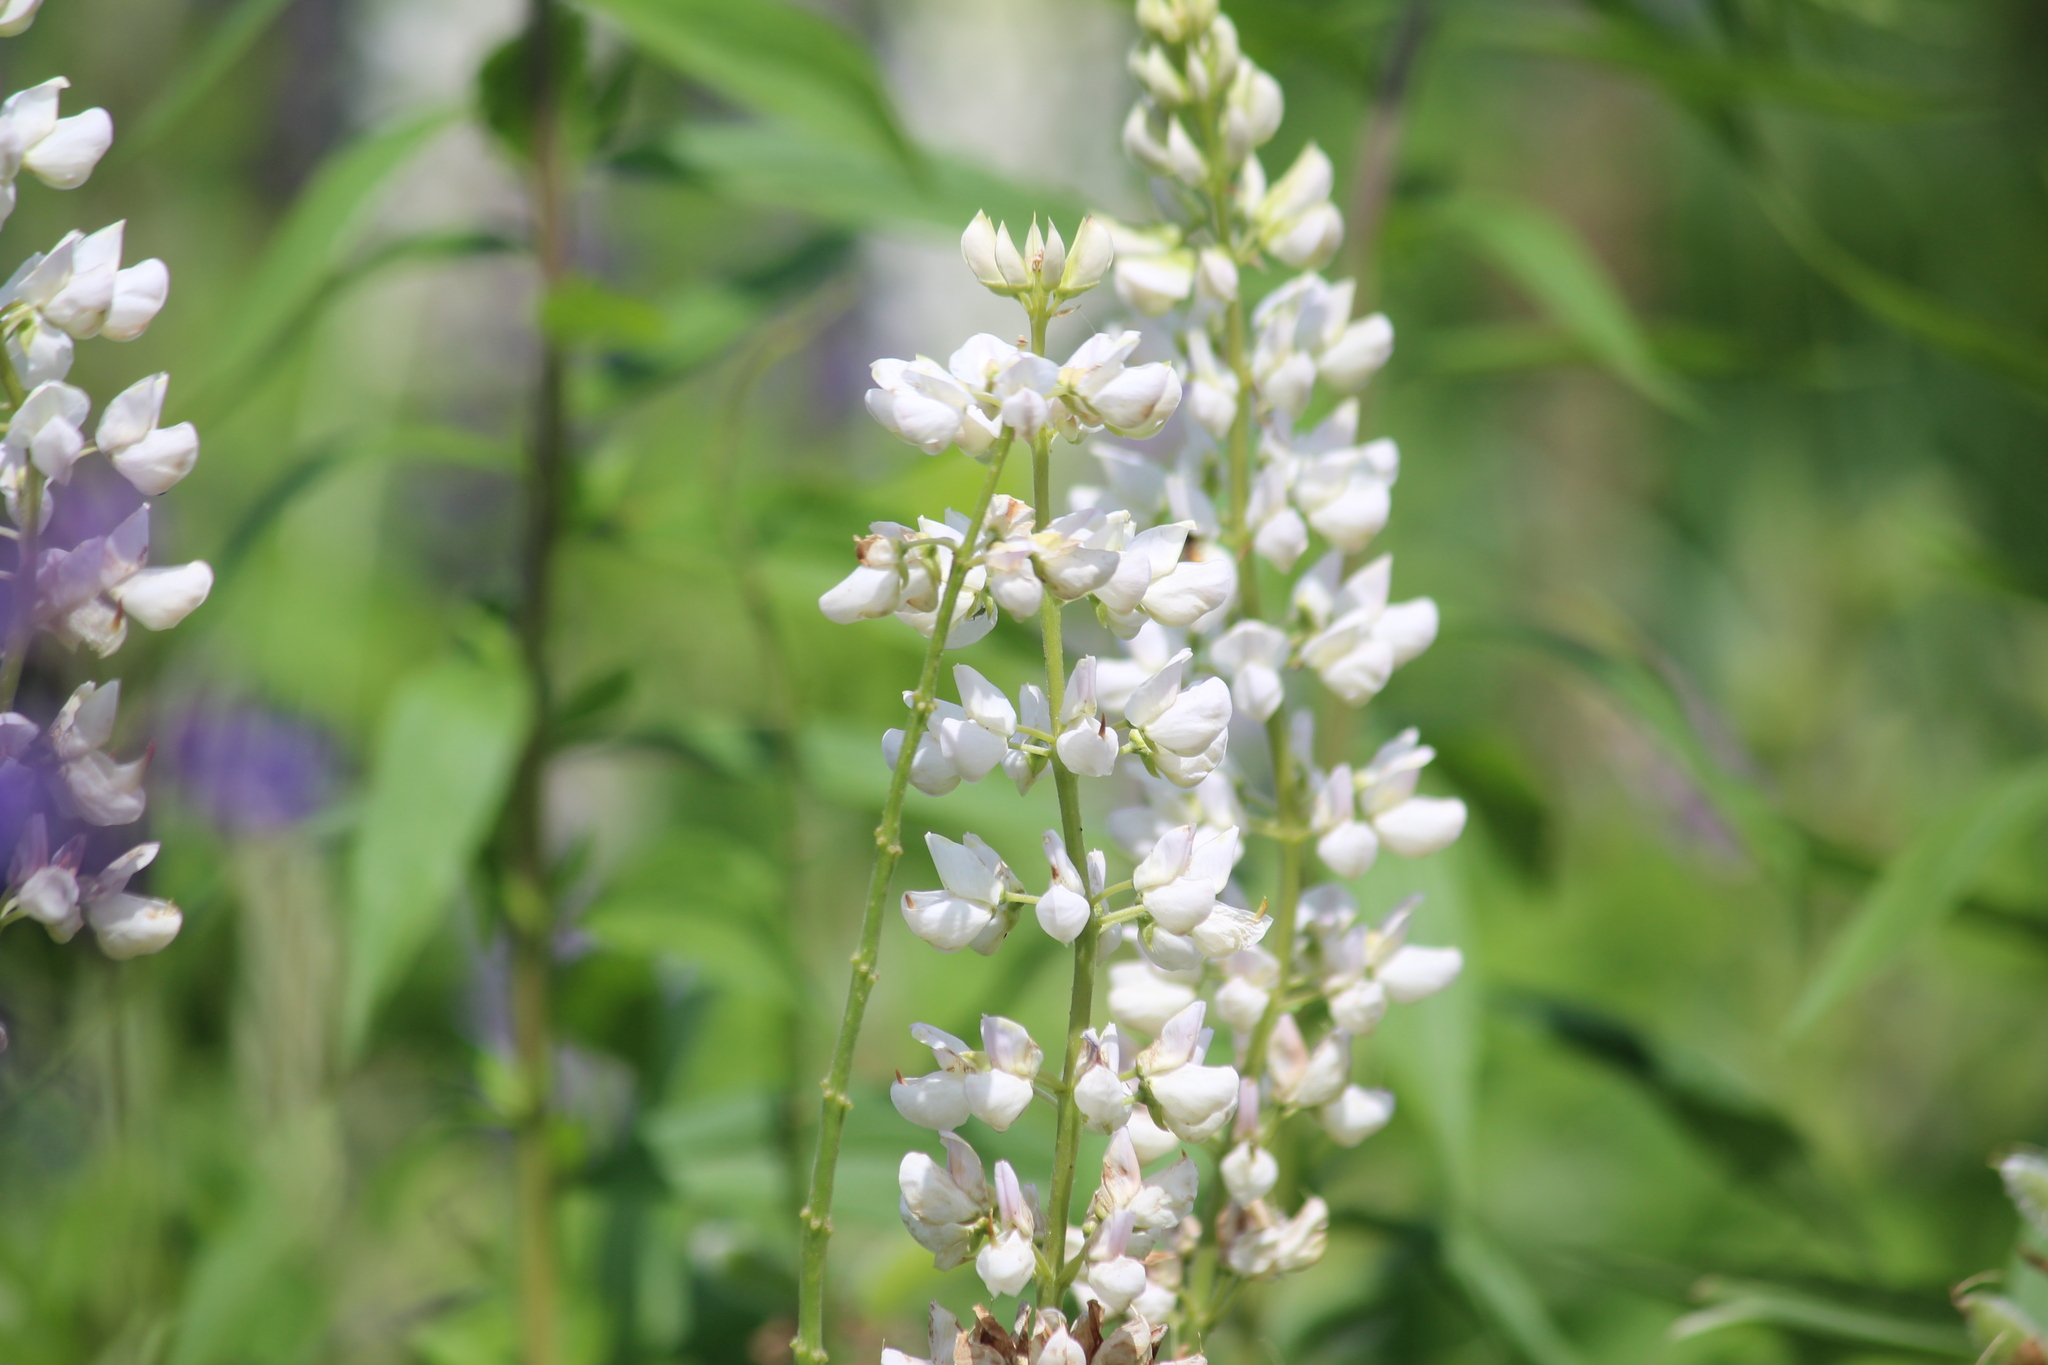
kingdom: Plantae
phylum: Tracheophyta
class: Magnoliopsida
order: Fabales
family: Fabaceae
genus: Lupinus
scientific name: Lupinus polyphyllus
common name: Garden lupin
